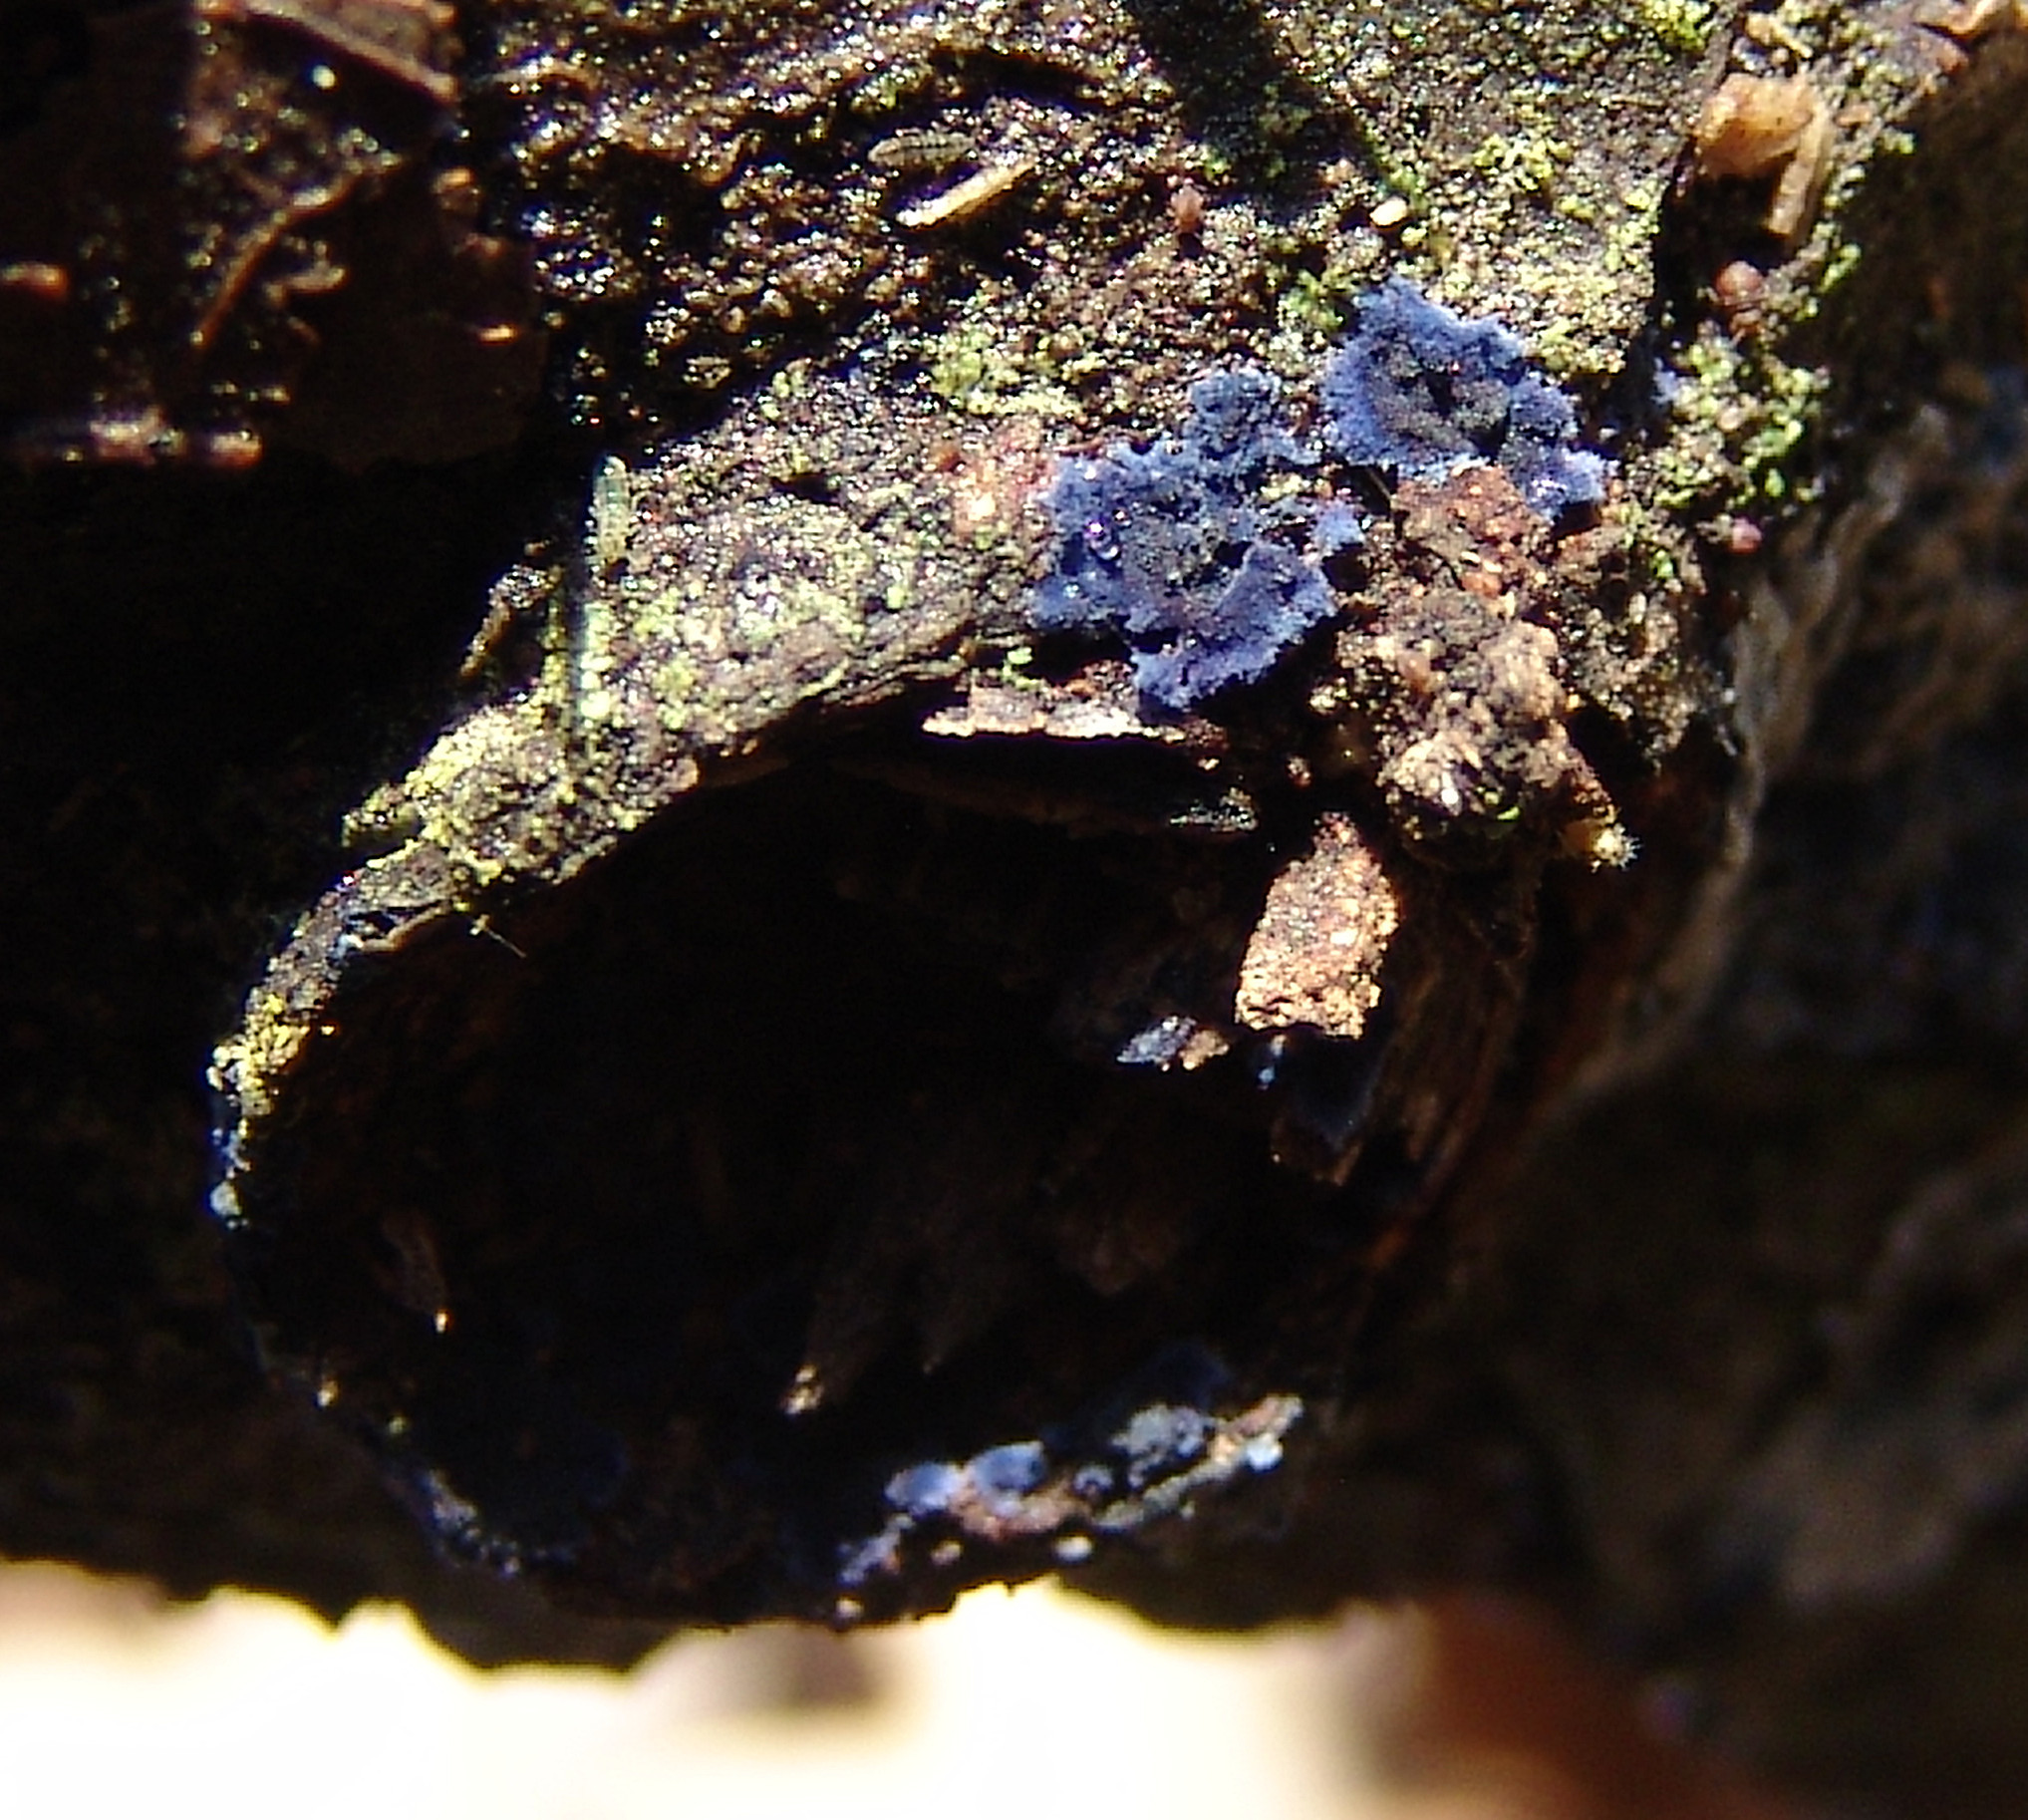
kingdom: Fungi
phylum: Basidiomycota
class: Agaricomycetes
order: Polyporales
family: Phanerochaetaceae
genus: Terana
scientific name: Terana coerulea
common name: Cobalt crust
